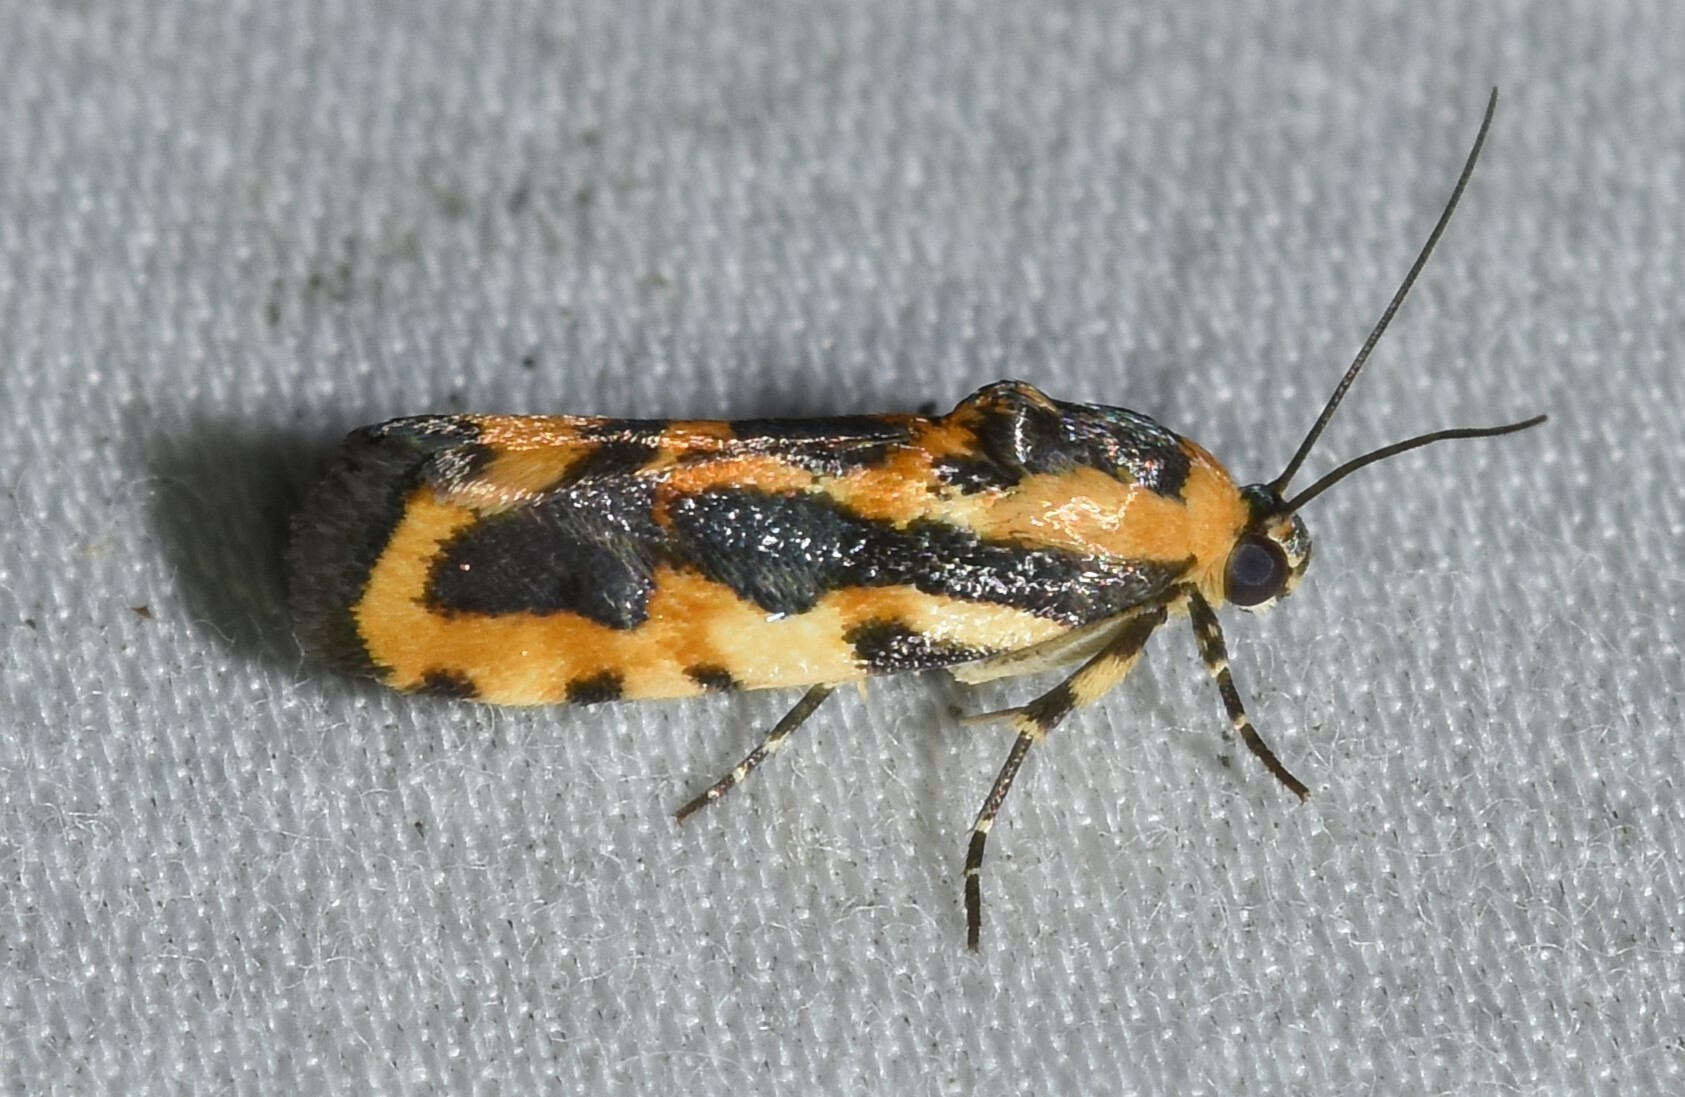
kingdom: Animalia
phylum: Arthropoda
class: Insecta
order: Lepidoptera
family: Noctuidae
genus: Acontia
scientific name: Acontia leo
